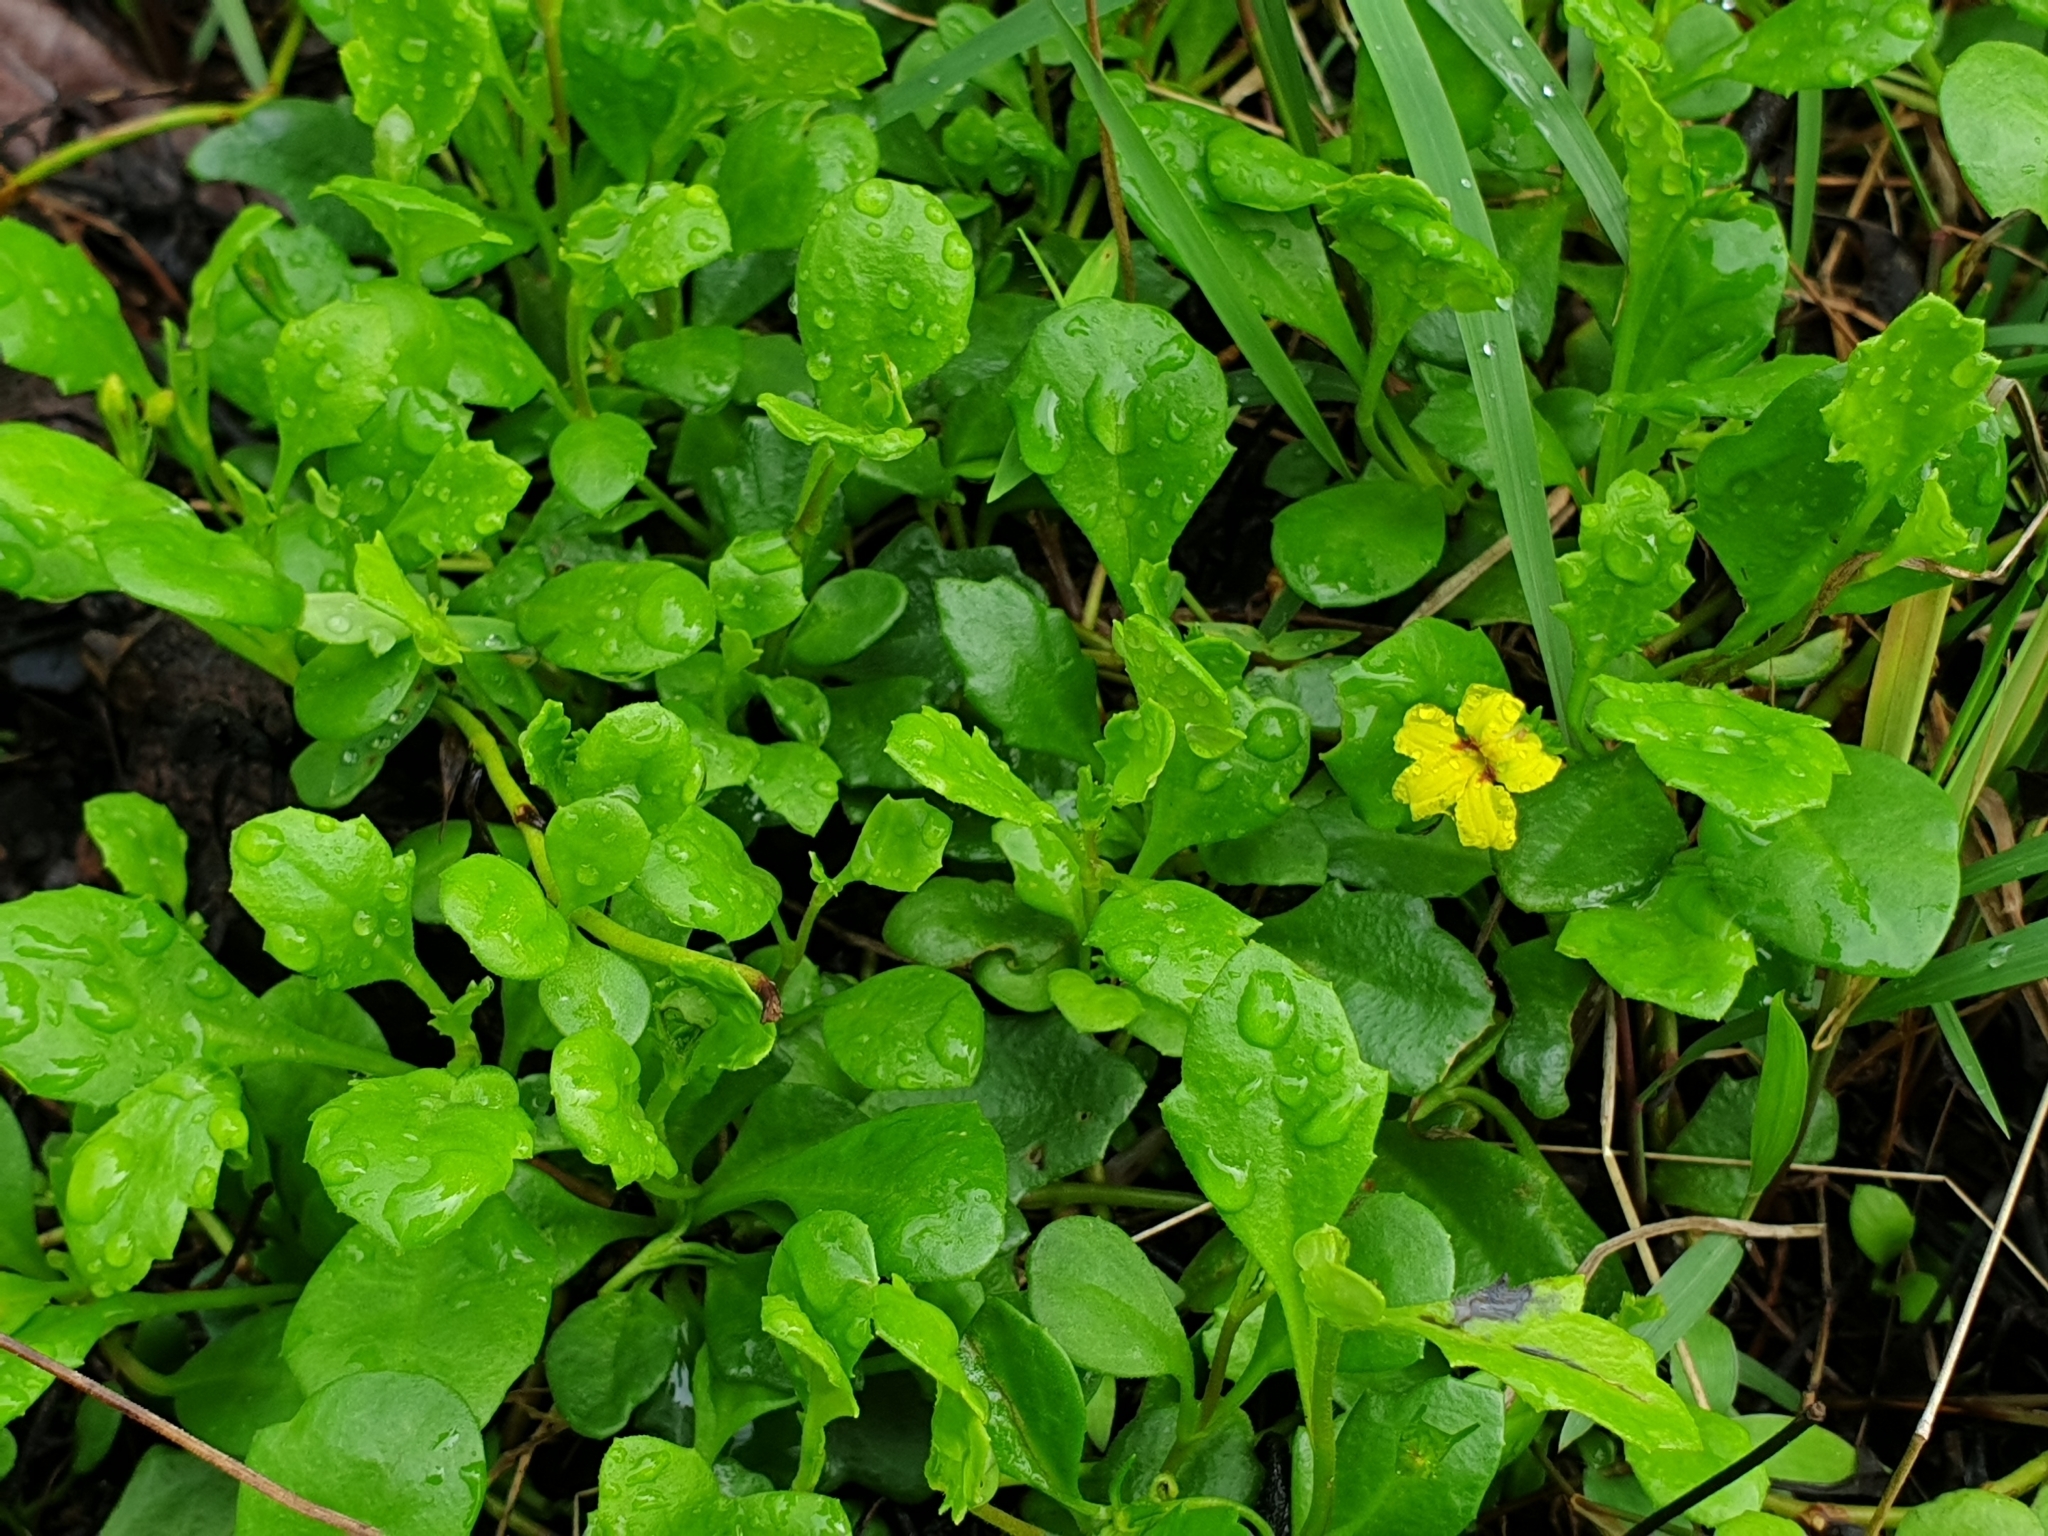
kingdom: Plantae
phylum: Tracheophyta
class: Magnoliopsida
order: Asterales
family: Goodeniaceae
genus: Goodenia
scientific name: Goodenia rotundifolia
